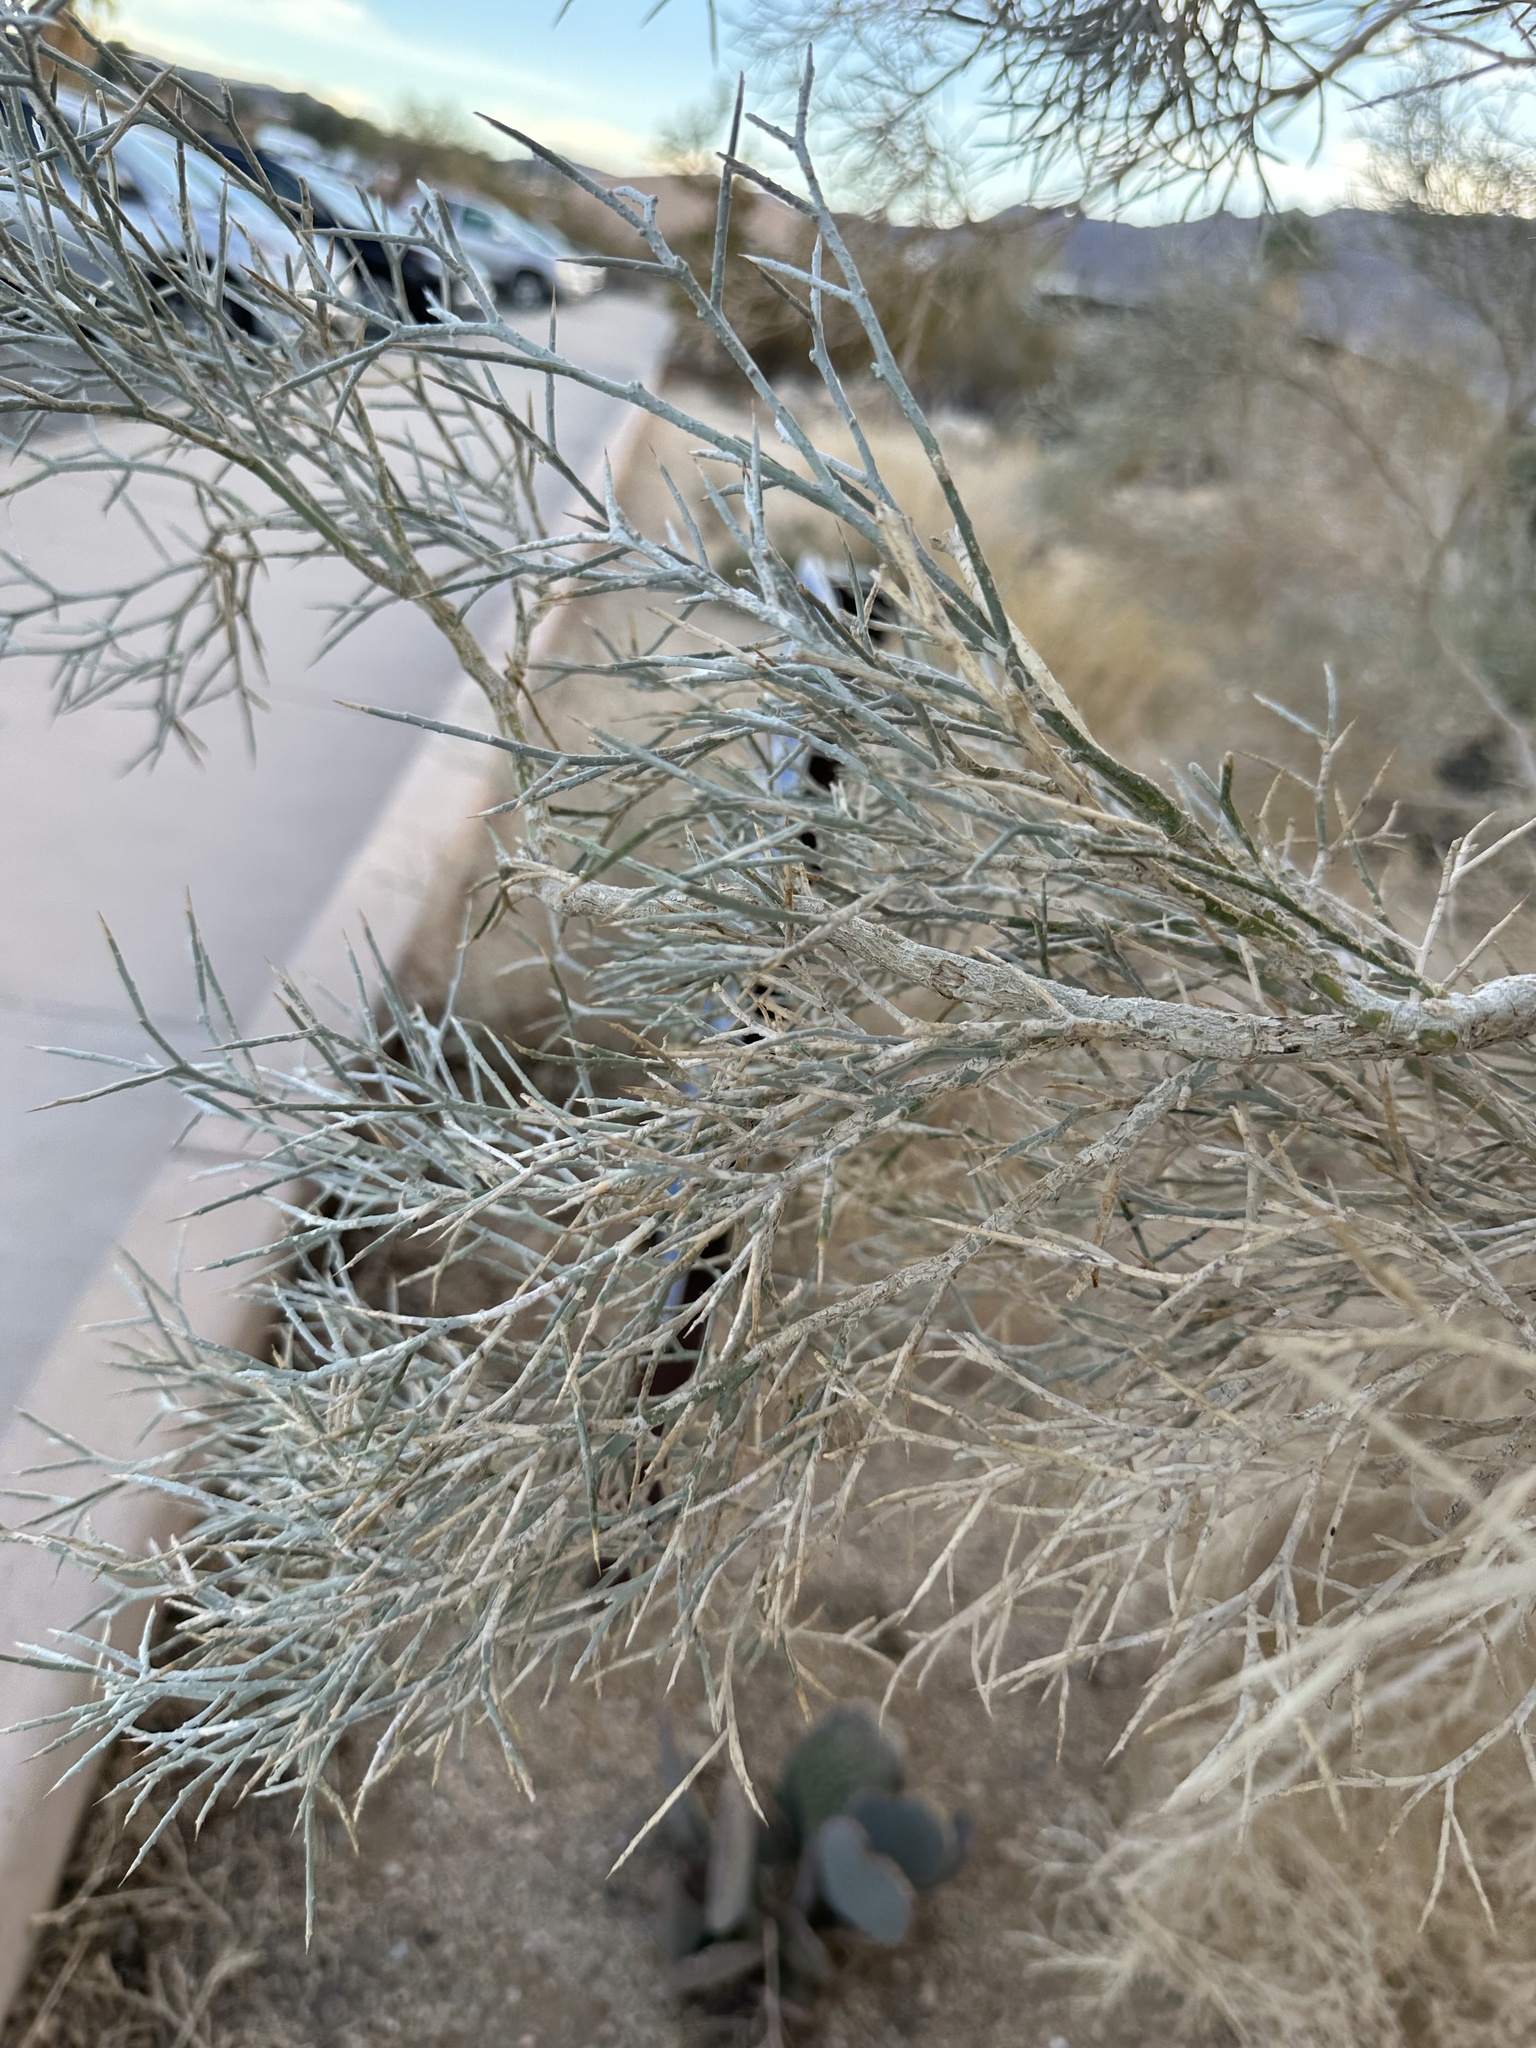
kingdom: Plantae
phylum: Tracheophyta
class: Magnoliopsida
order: Fabales
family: Fabaceae
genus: Psorothamnus
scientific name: Psorothamnus spinosus
